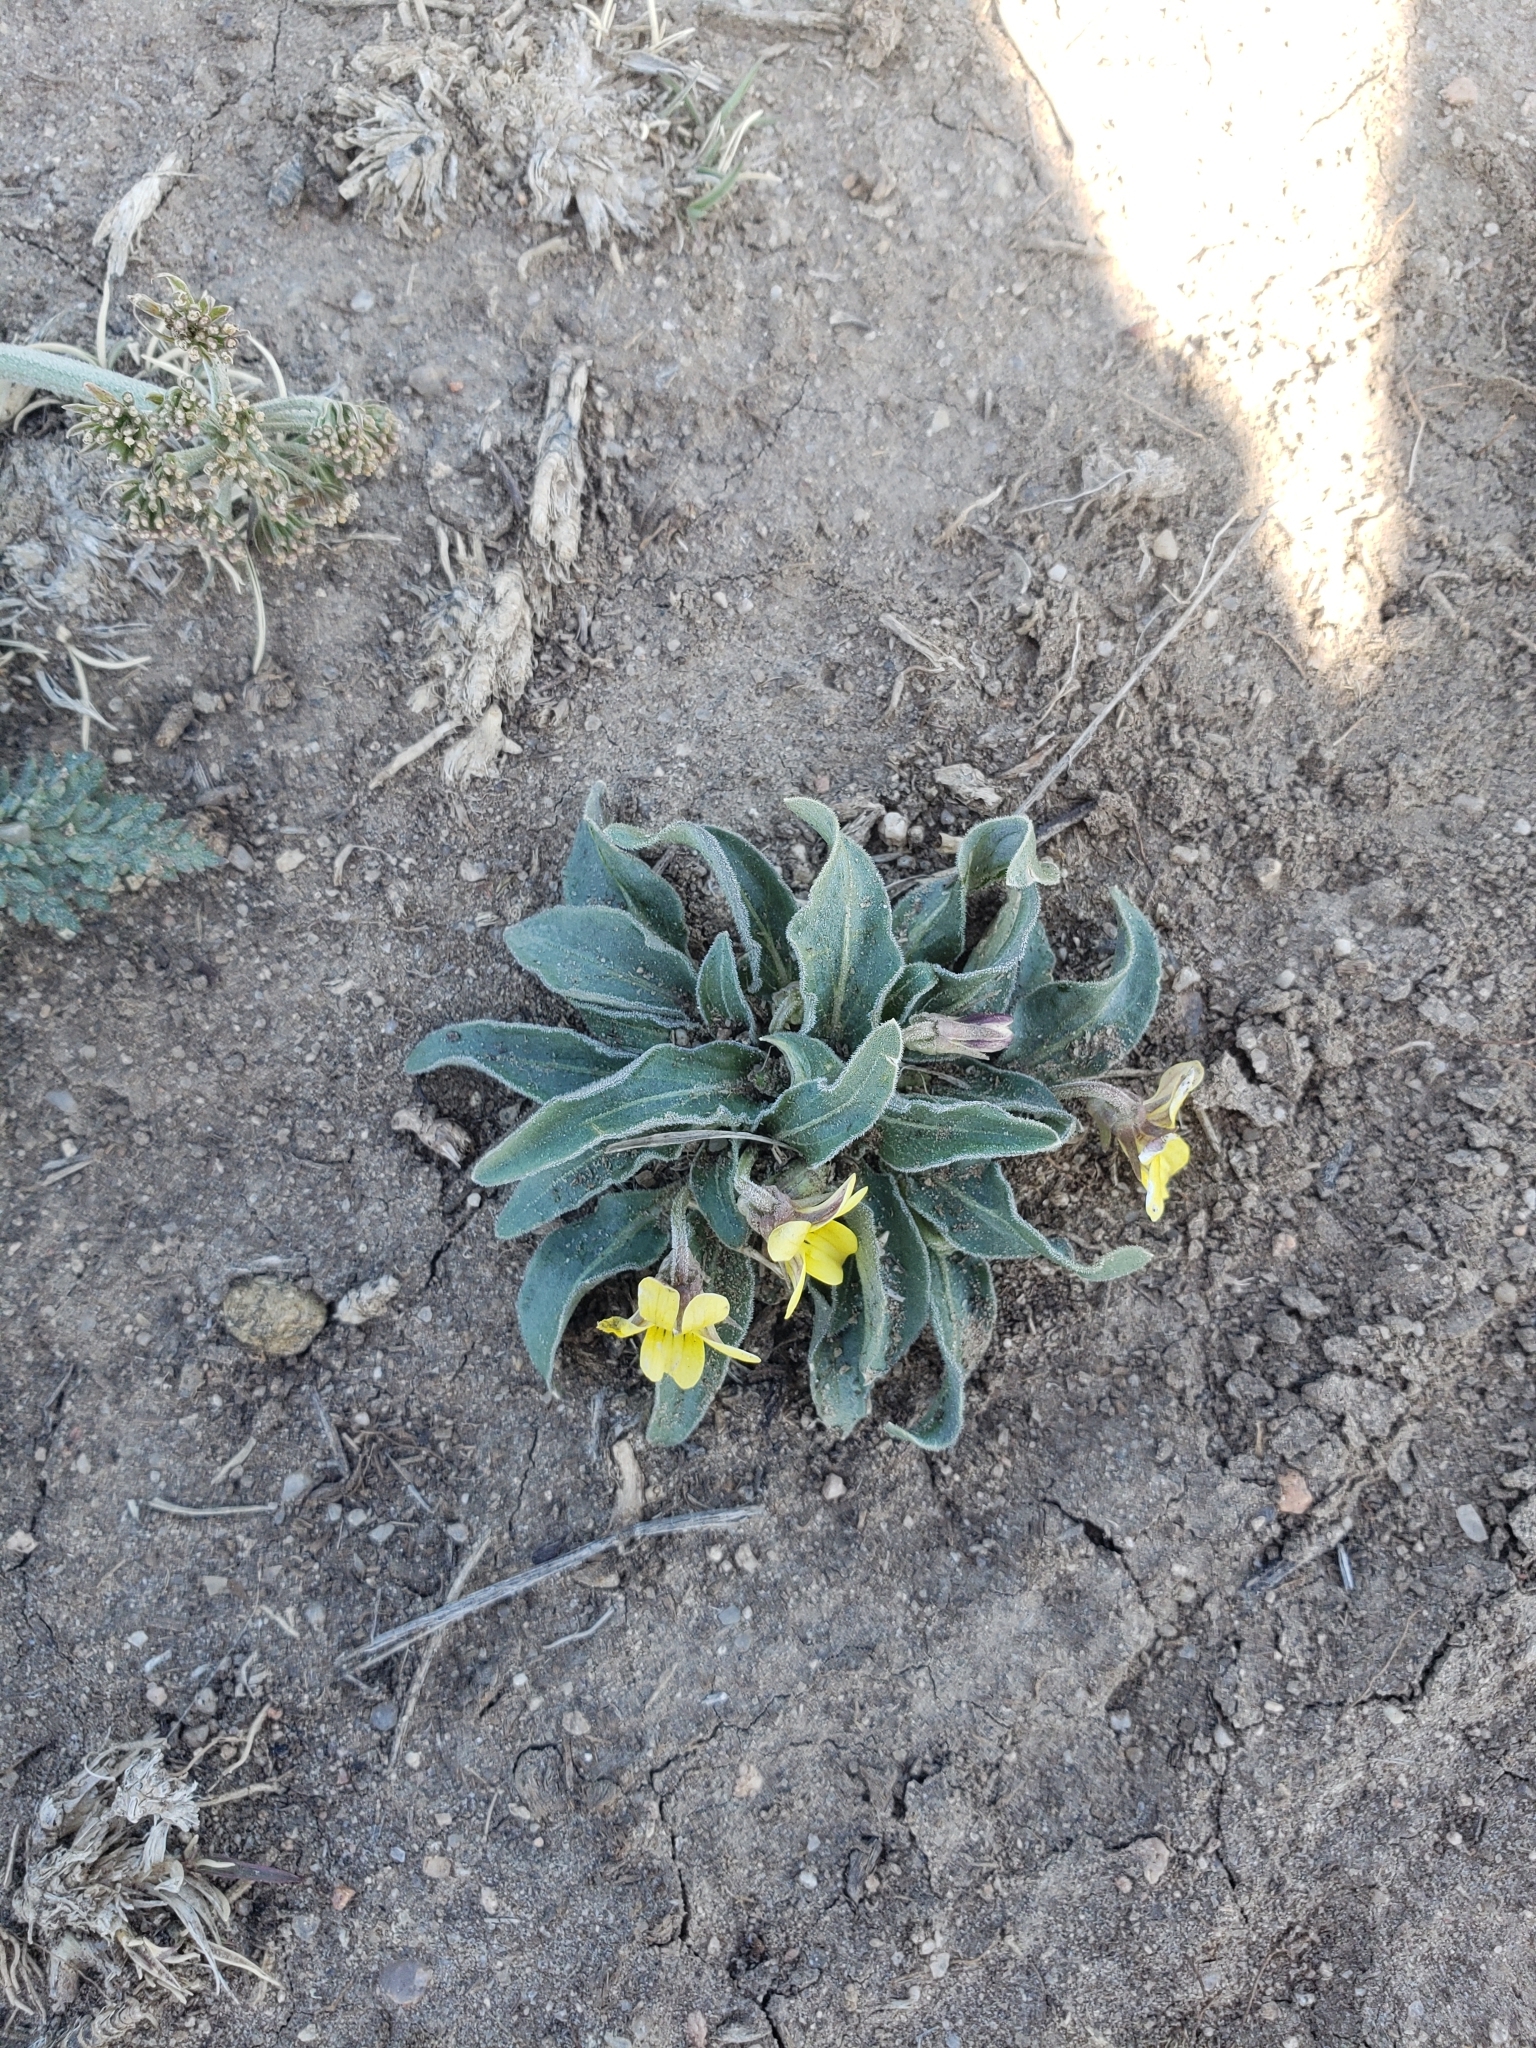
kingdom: Plantae
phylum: Tracheophyta
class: Magnoliopsida
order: Malpighiales
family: Violaceae
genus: Viola
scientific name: Viola nuttallii
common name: Yellow prairie violet
